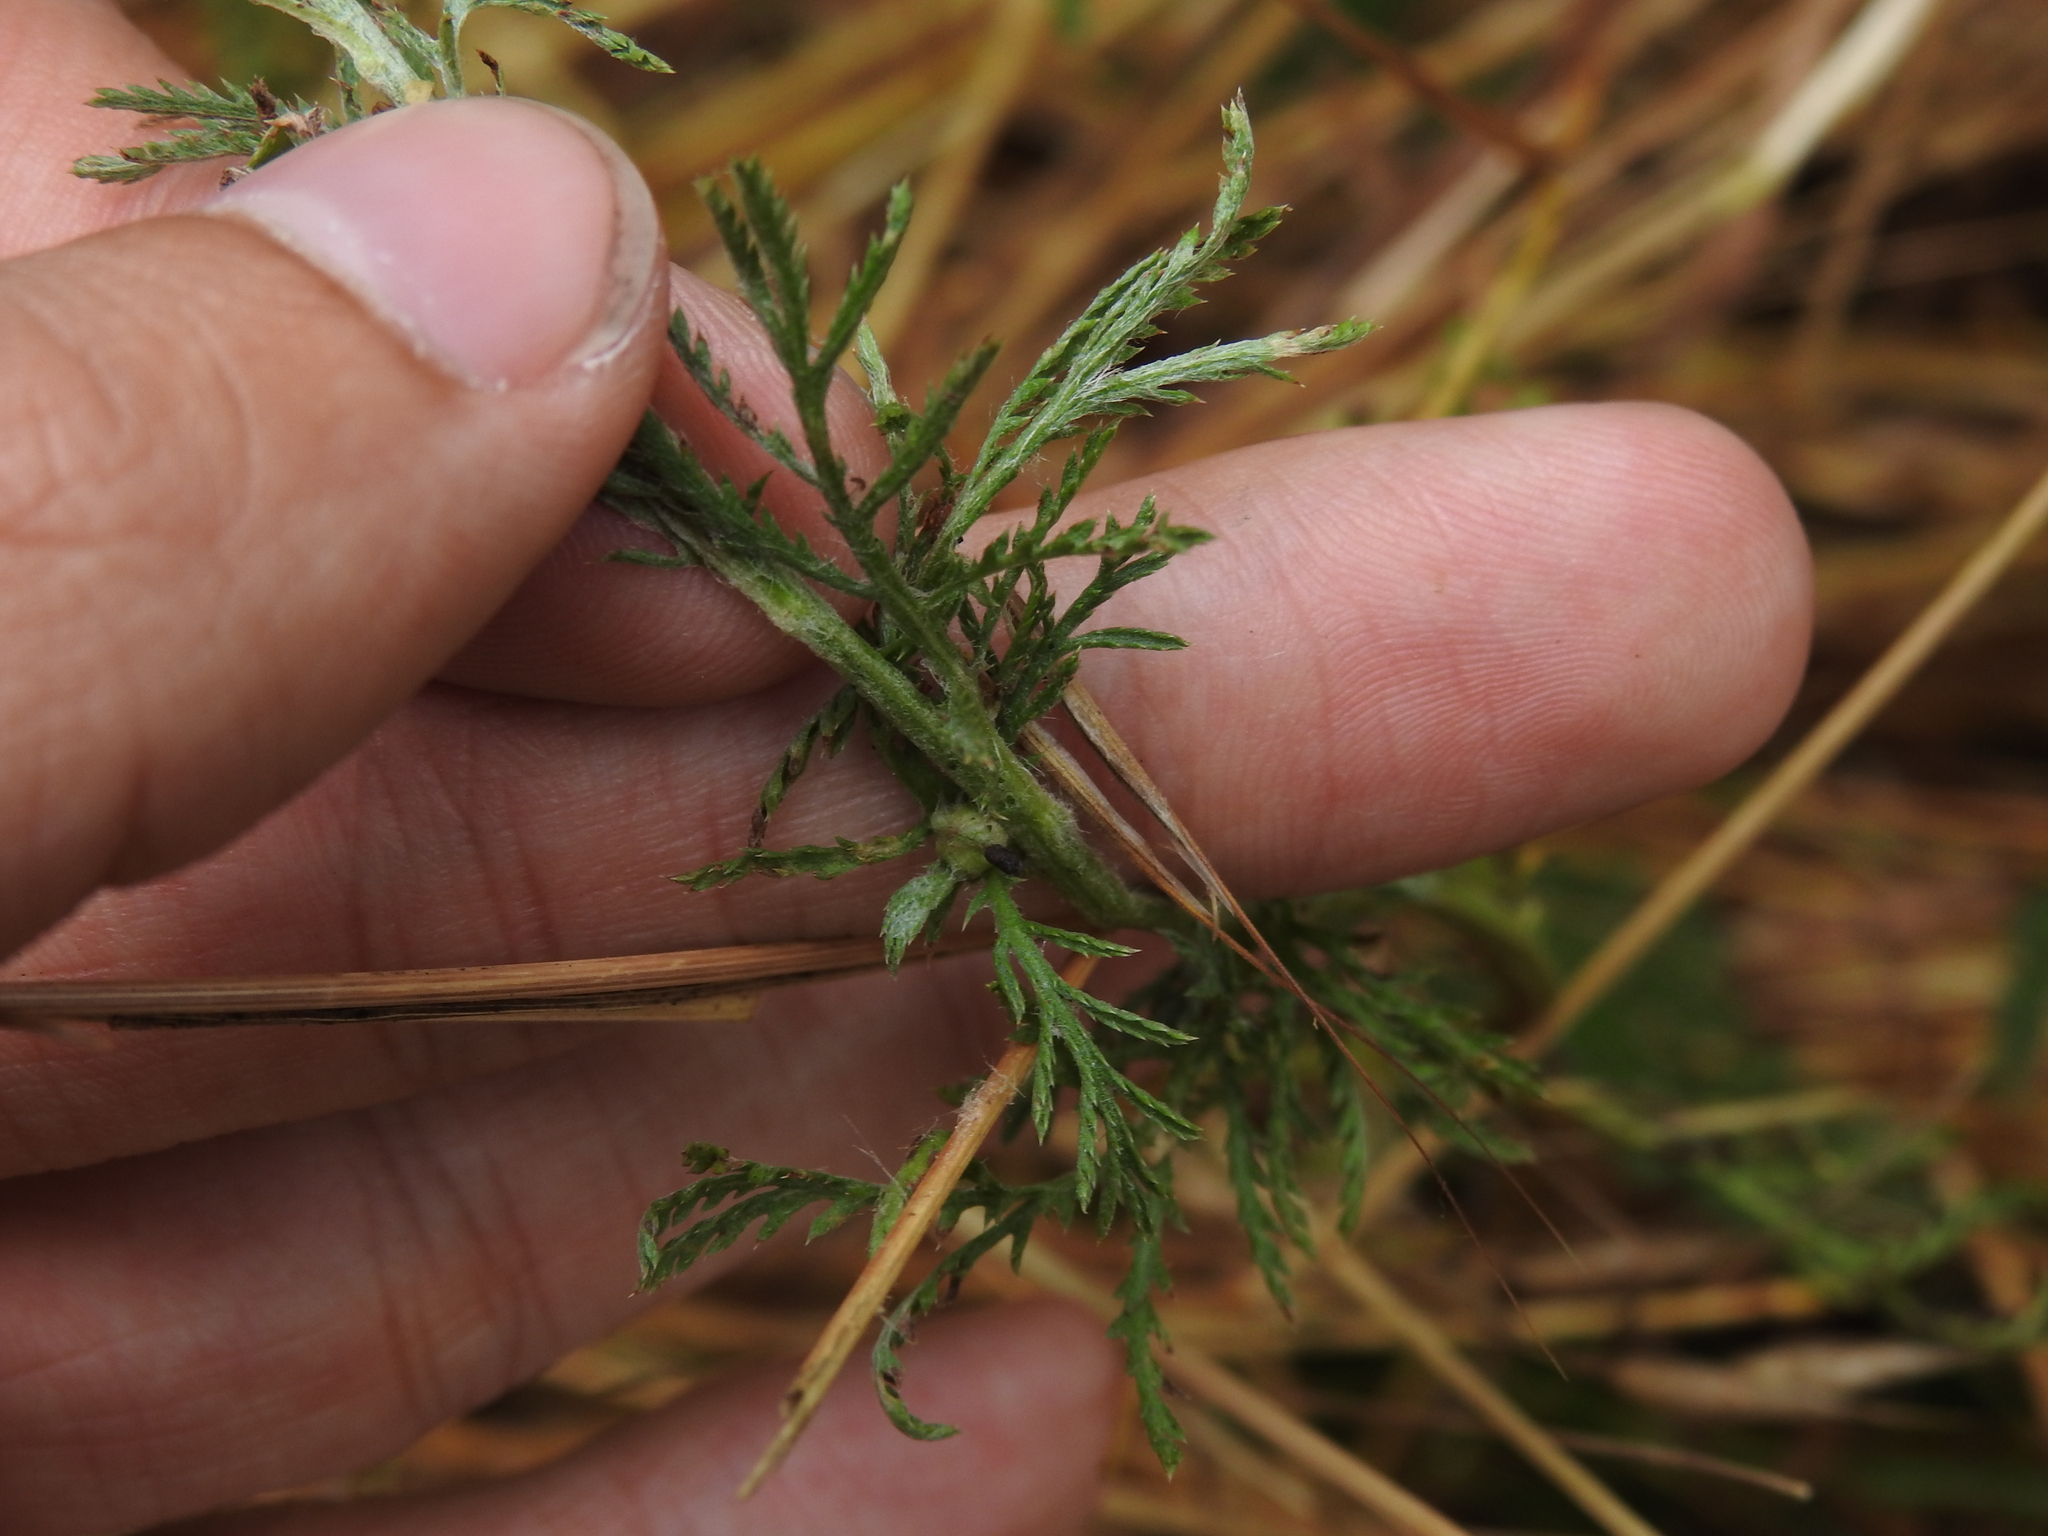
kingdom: Plantae
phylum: Tracheophyta
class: Magnoliopsida
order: Asterales
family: Asteraceae
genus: Cota
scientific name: Cota tinctoria
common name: Golden chamomile
